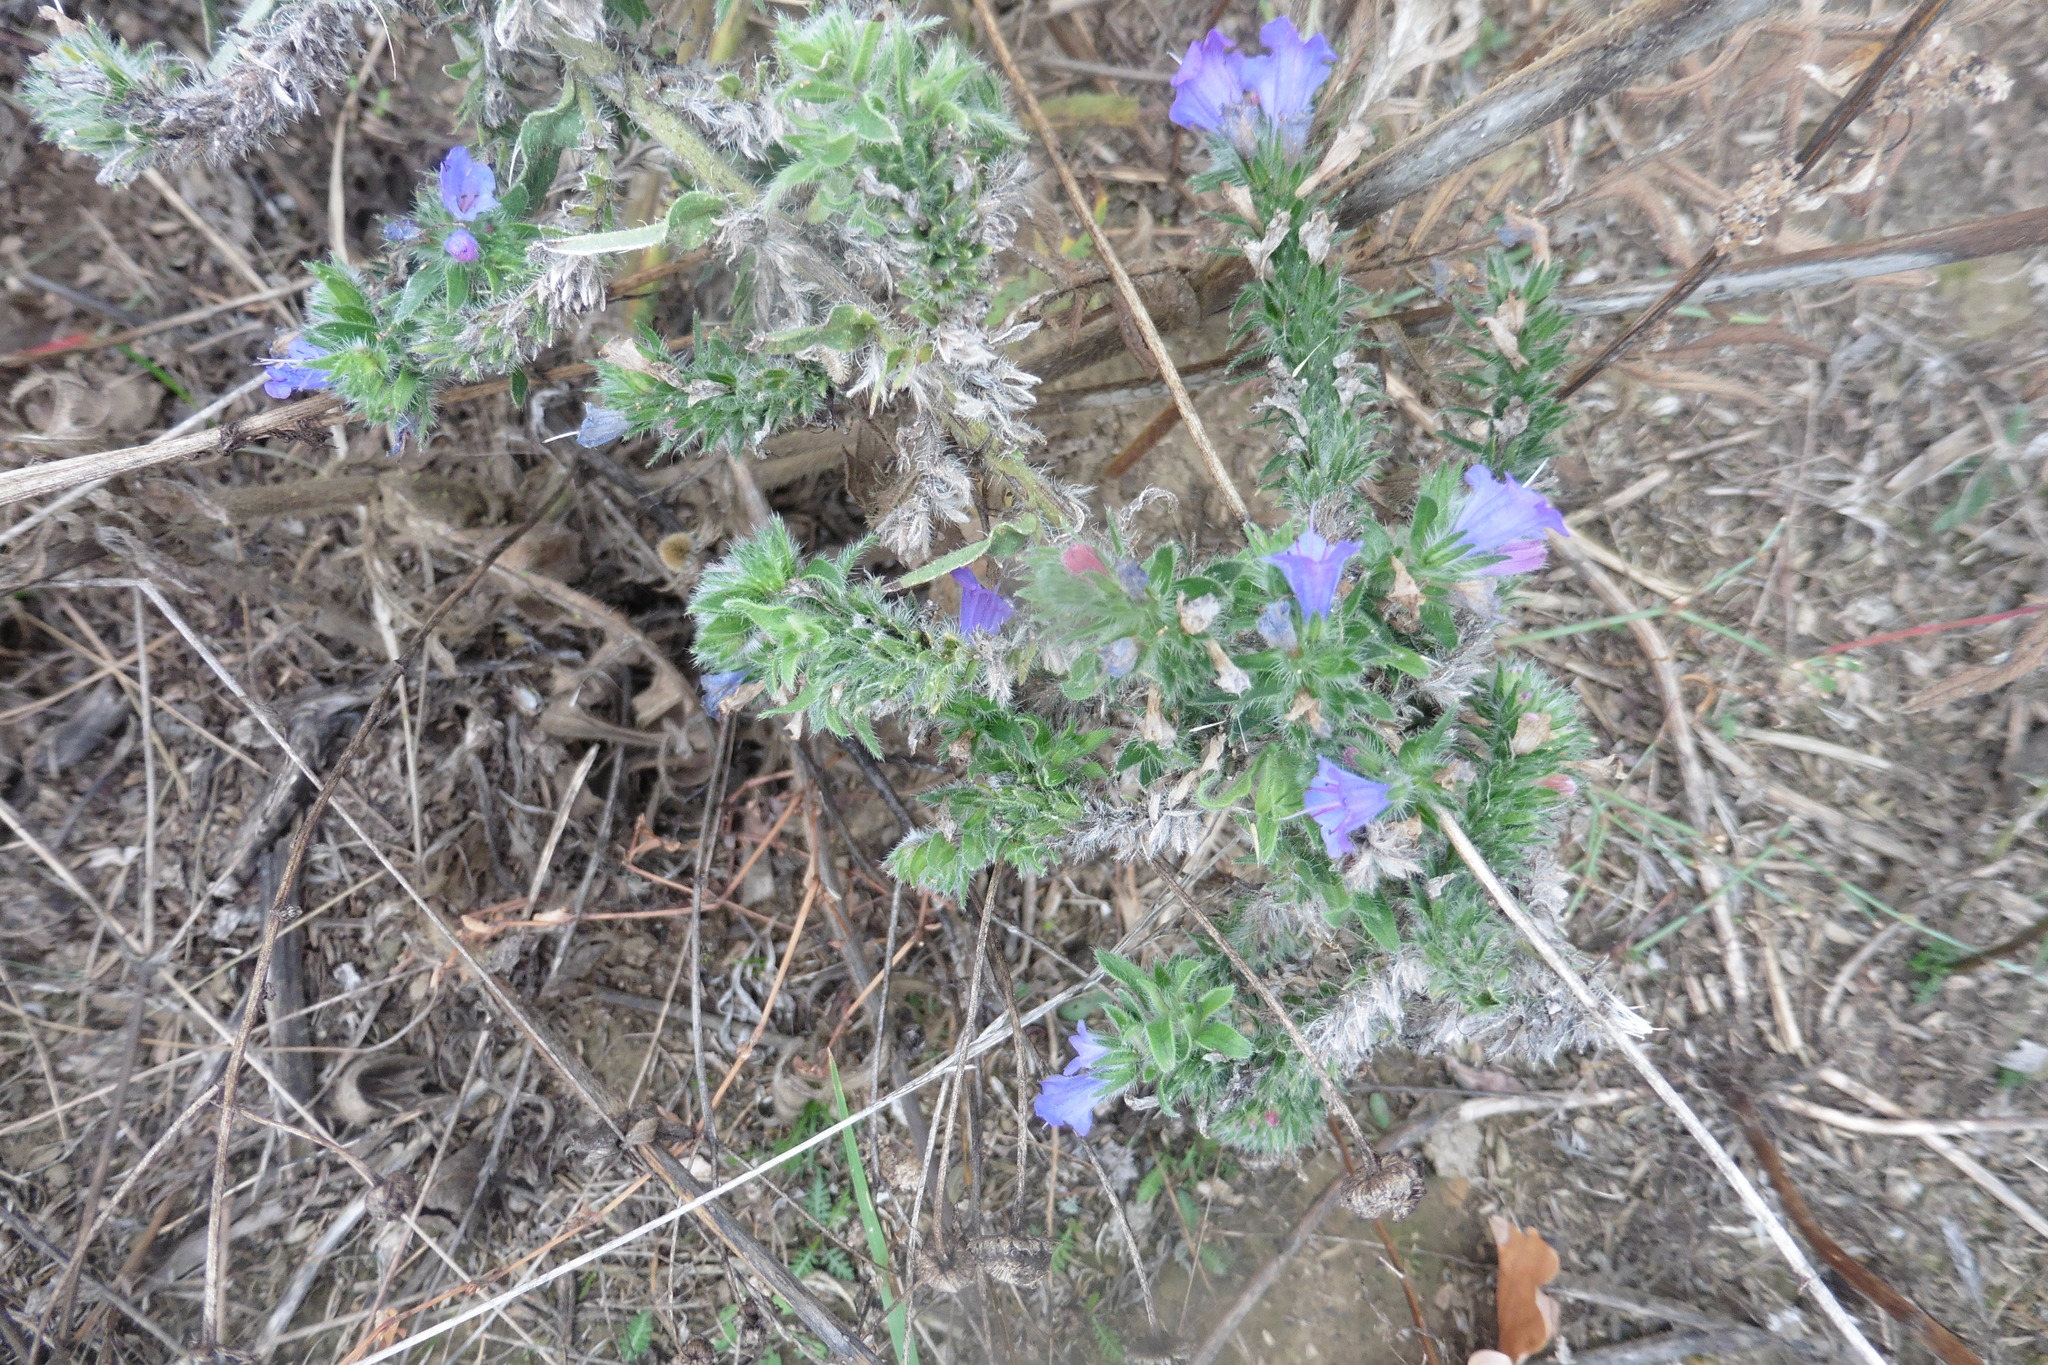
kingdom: Plantae
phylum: Tracheophyta
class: Magnoliopsida
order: Boraginales
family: Boraginaceae
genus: Echium
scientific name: Echium vulgare
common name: Common viper's bugloss
